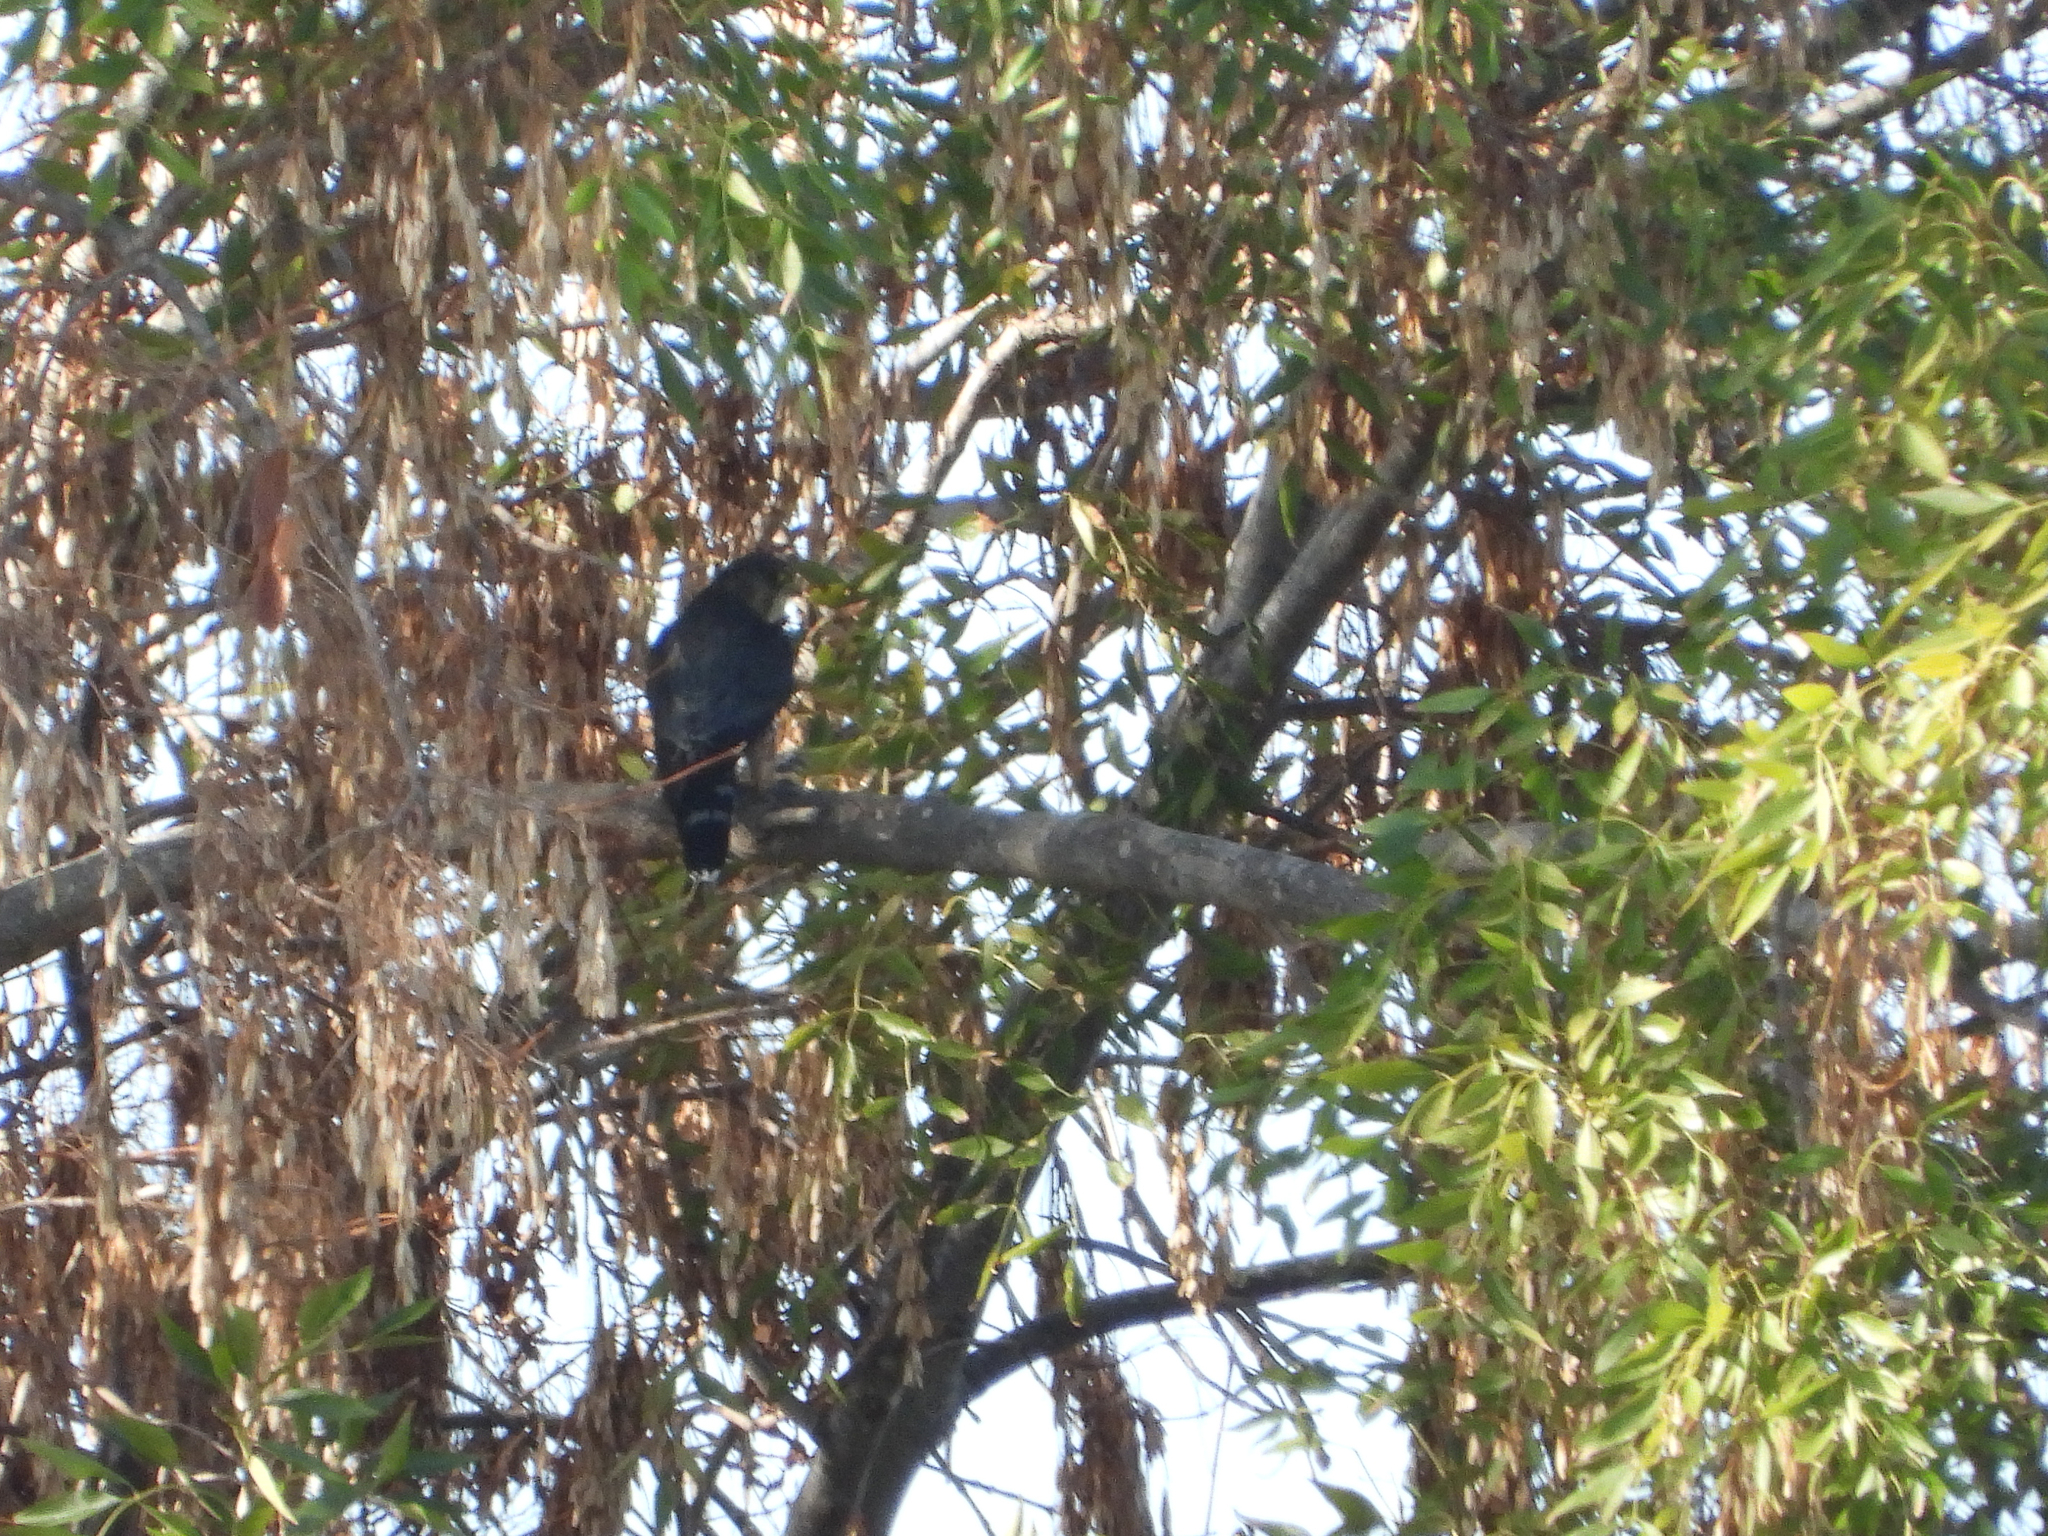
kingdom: Animalia
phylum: Chordata
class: Aves
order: Falconiformes
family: Falconidae
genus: Falco
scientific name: Falco columbarius
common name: Merlin
